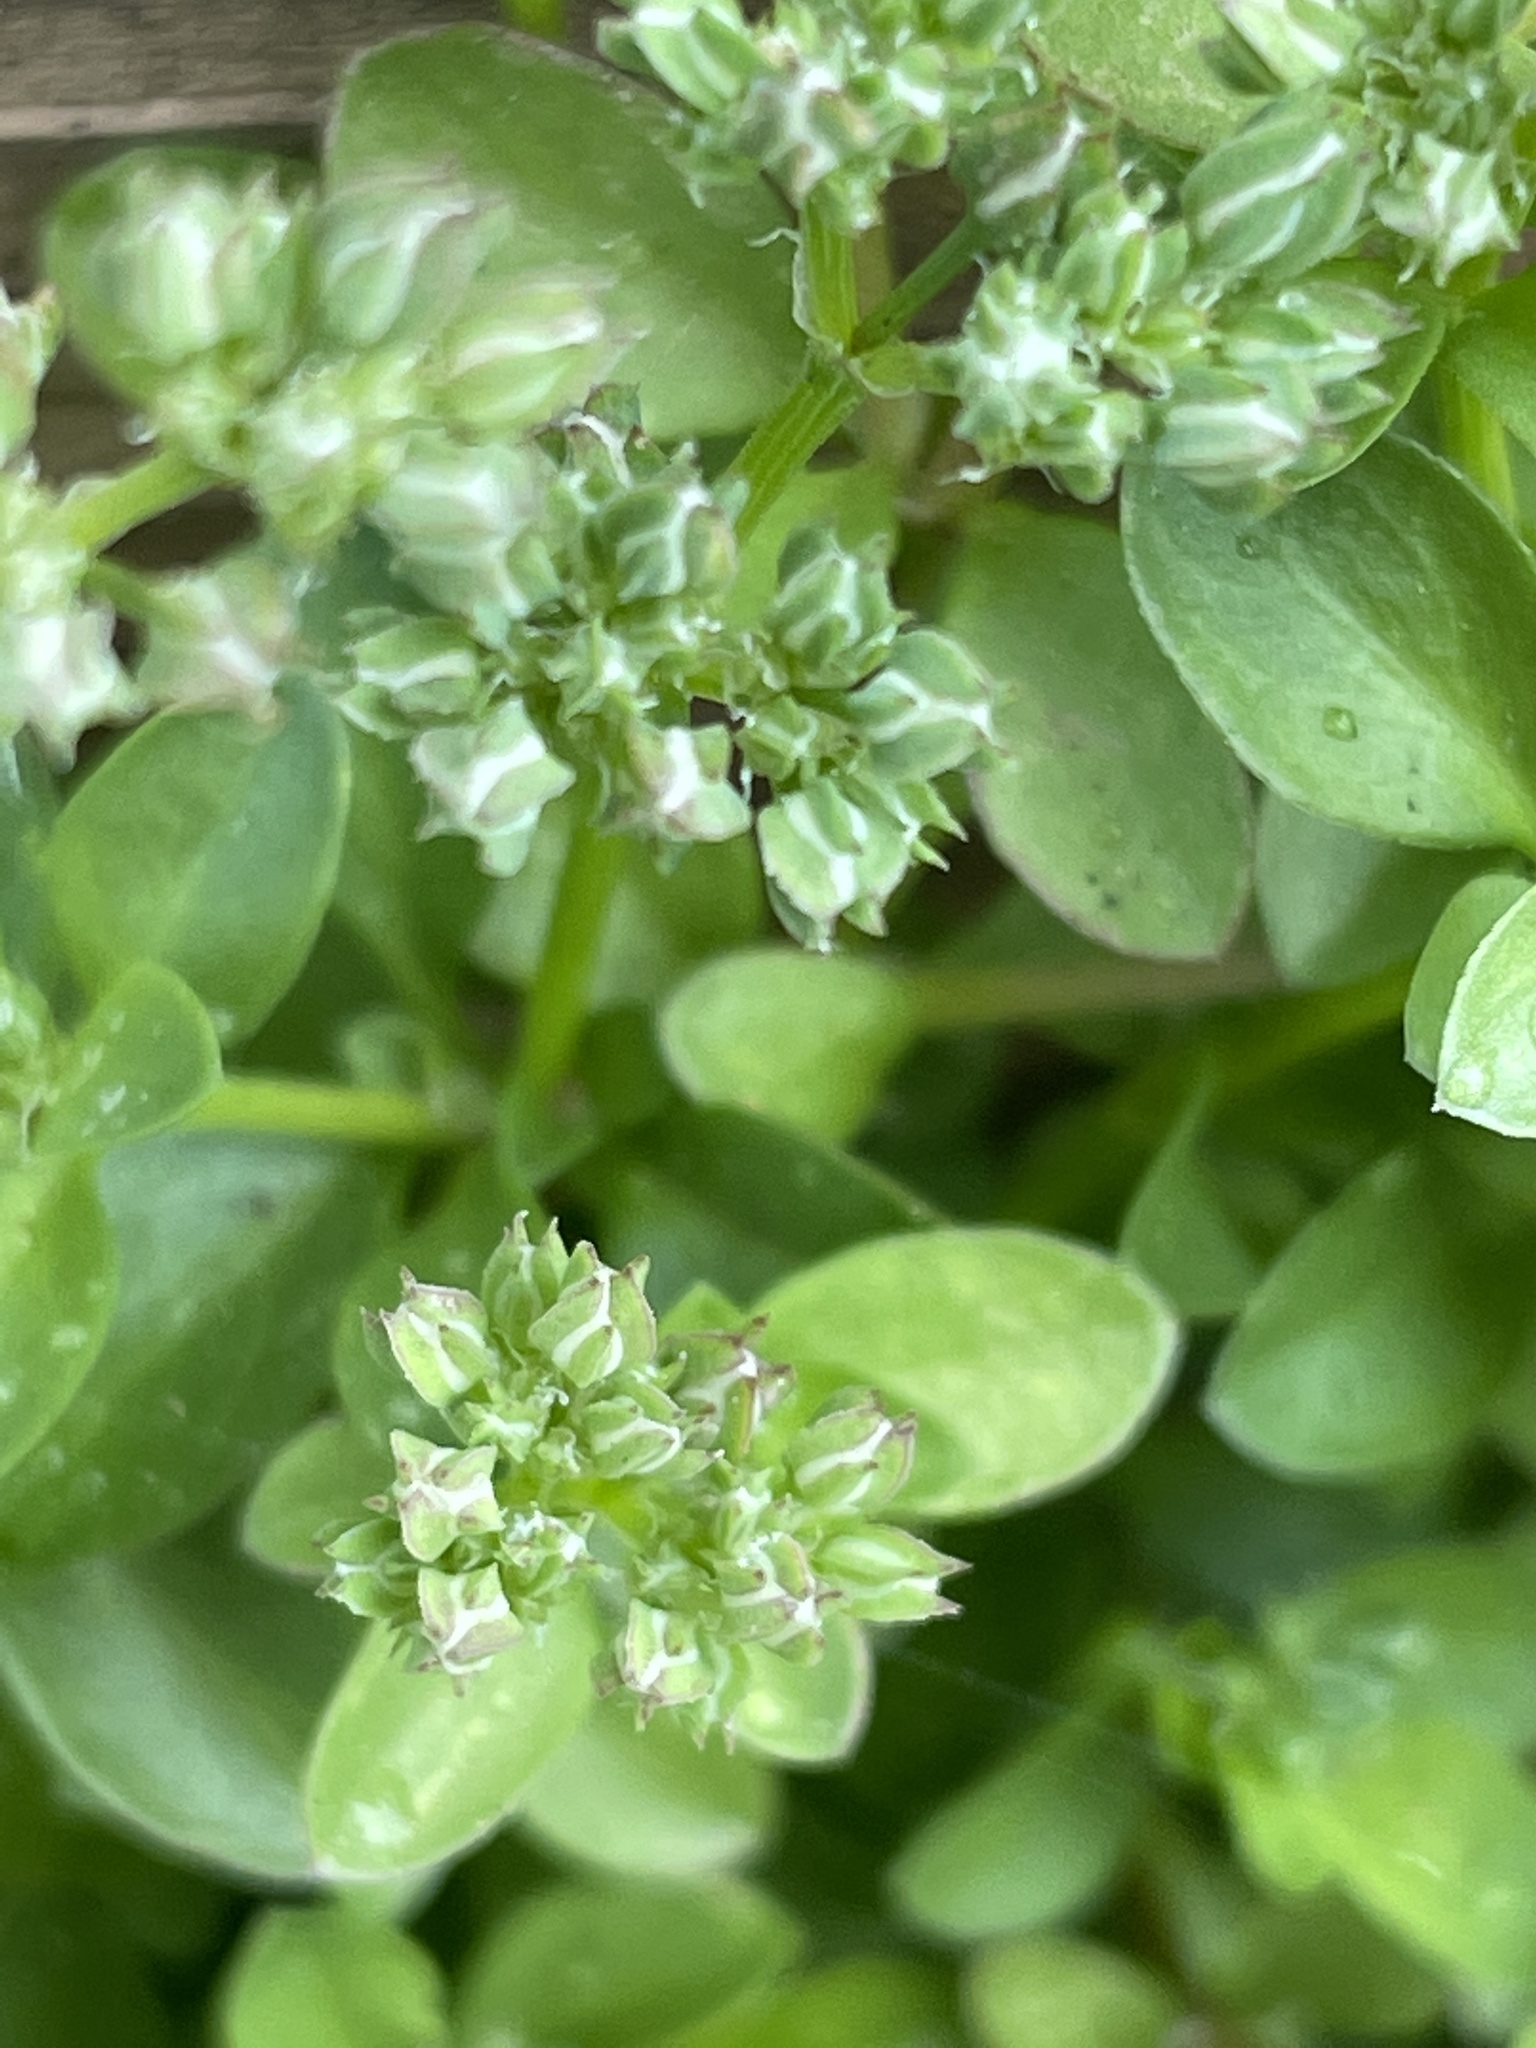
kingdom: Plantae
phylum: Tracheophyta
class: Magnoliopsida
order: Caryophyllales
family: Caryophyllaceae
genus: Polycarpon
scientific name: Polycarpon tetraphyllum
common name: Four-leaved all-seed
